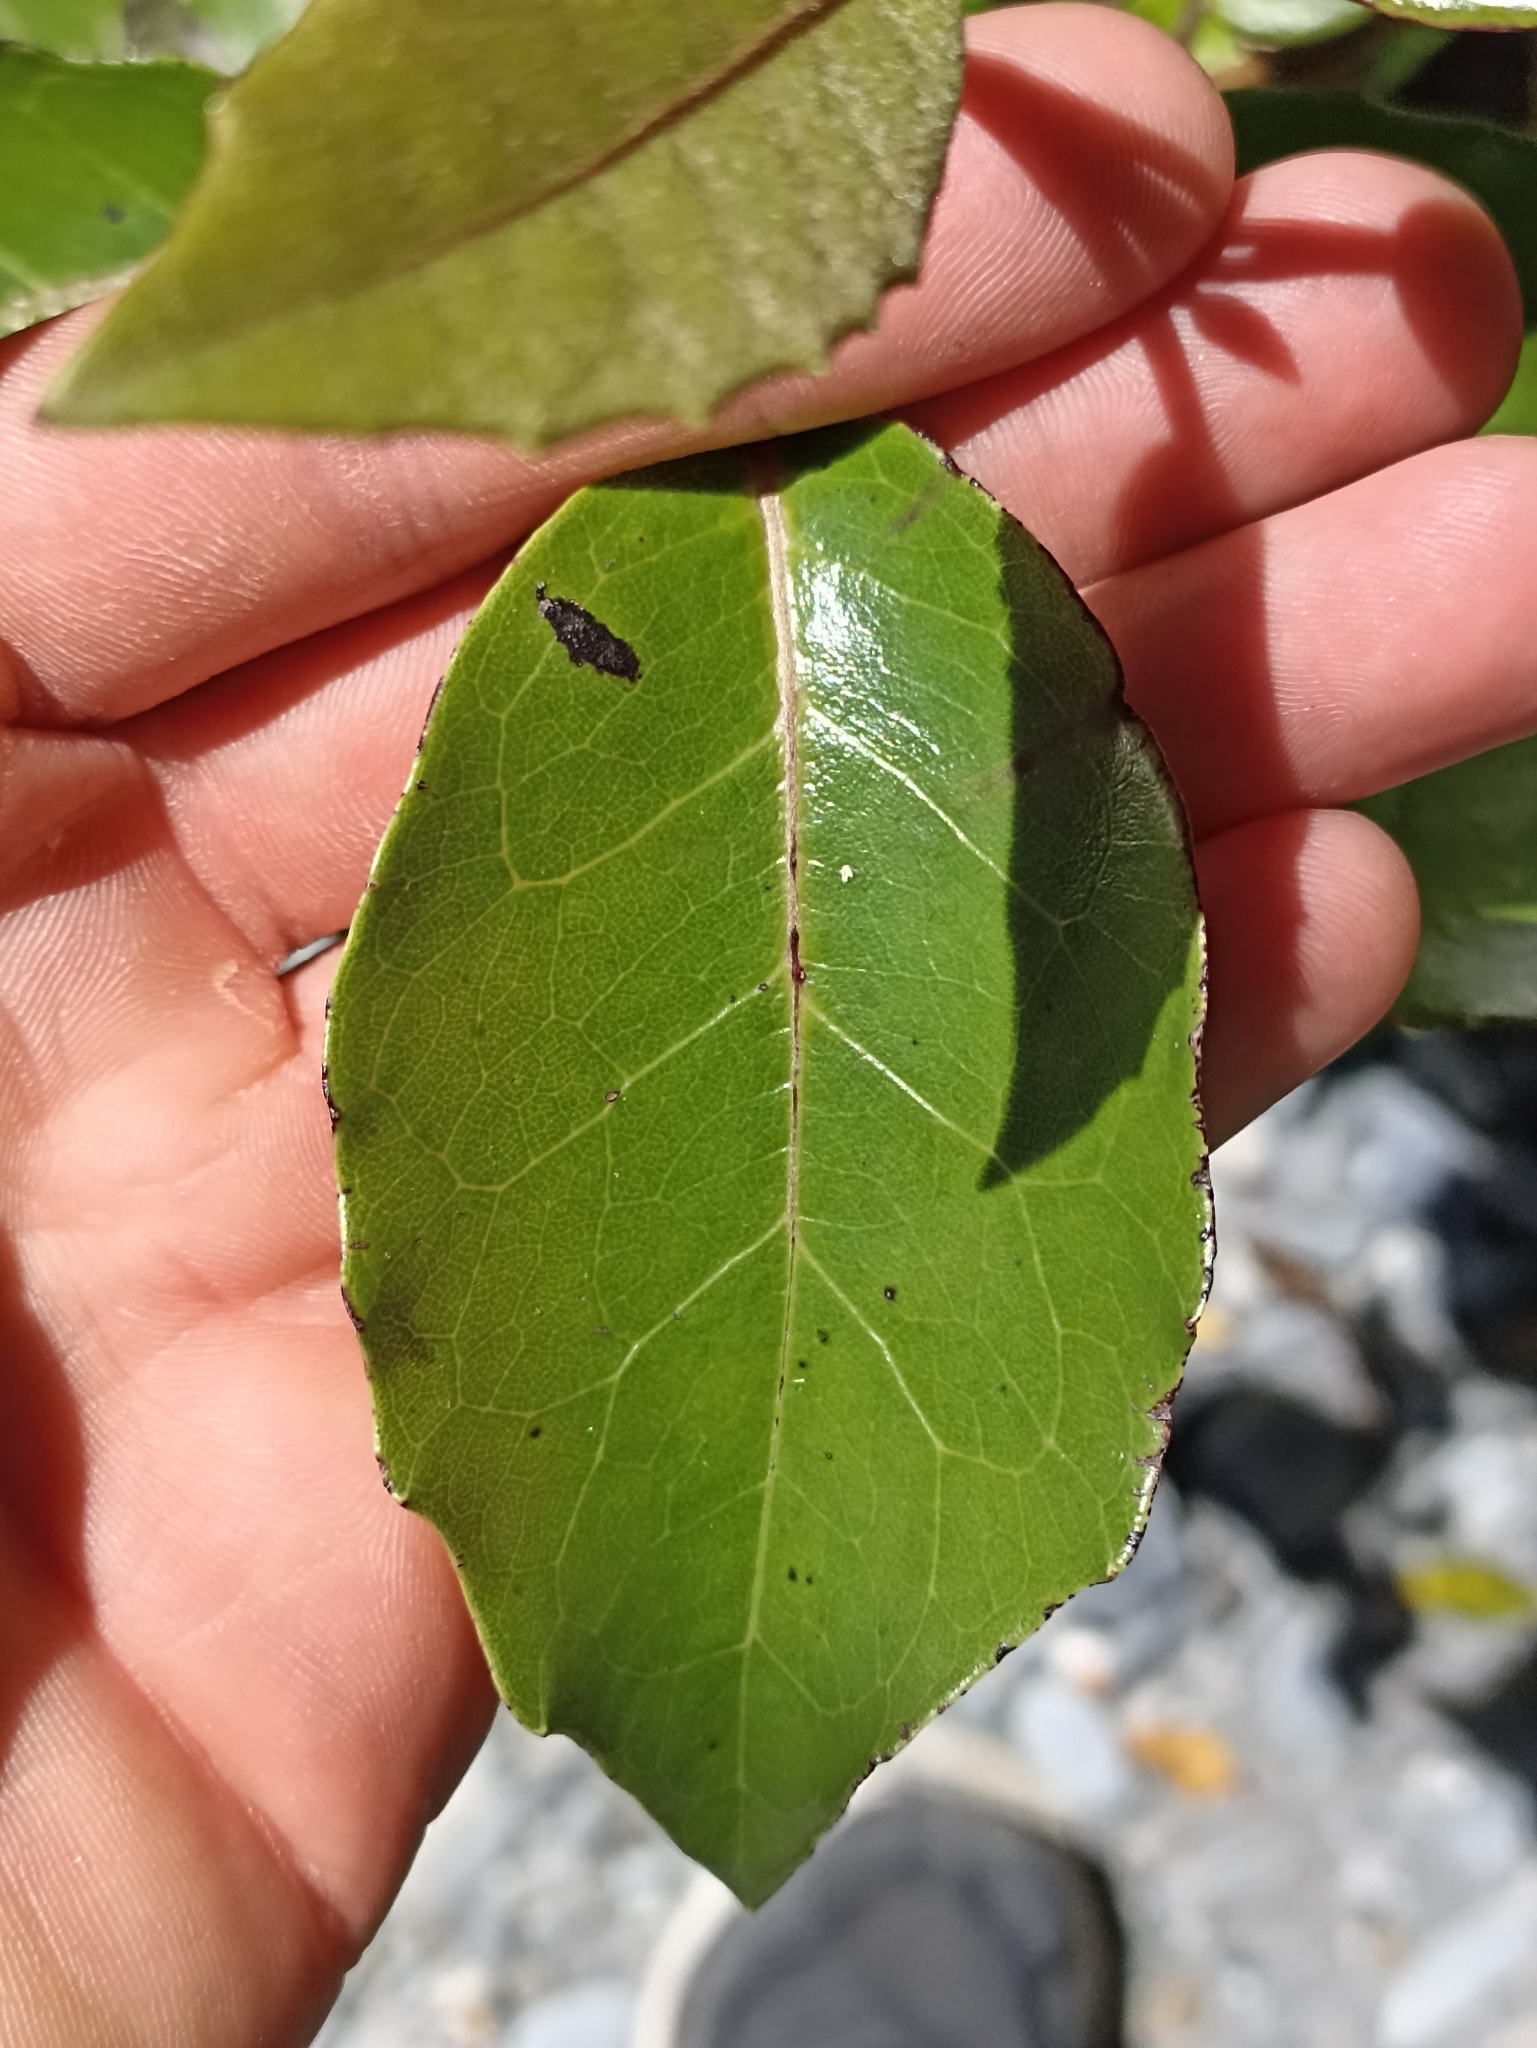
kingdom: Plantae
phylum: Tracheophyta
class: Magnoliopsida
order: Asterales
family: Asteraceae
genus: Olearia
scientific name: Olearia arborescens
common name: Glossy tree daisy
